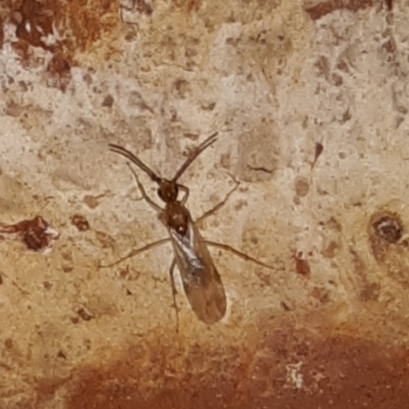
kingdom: Animalia
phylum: Arthropoda
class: Insecta
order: Hymenoptera
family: Formicidae
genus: Pachycondyla
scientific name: Pachycondyla chinensis
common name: Asian needle ant
